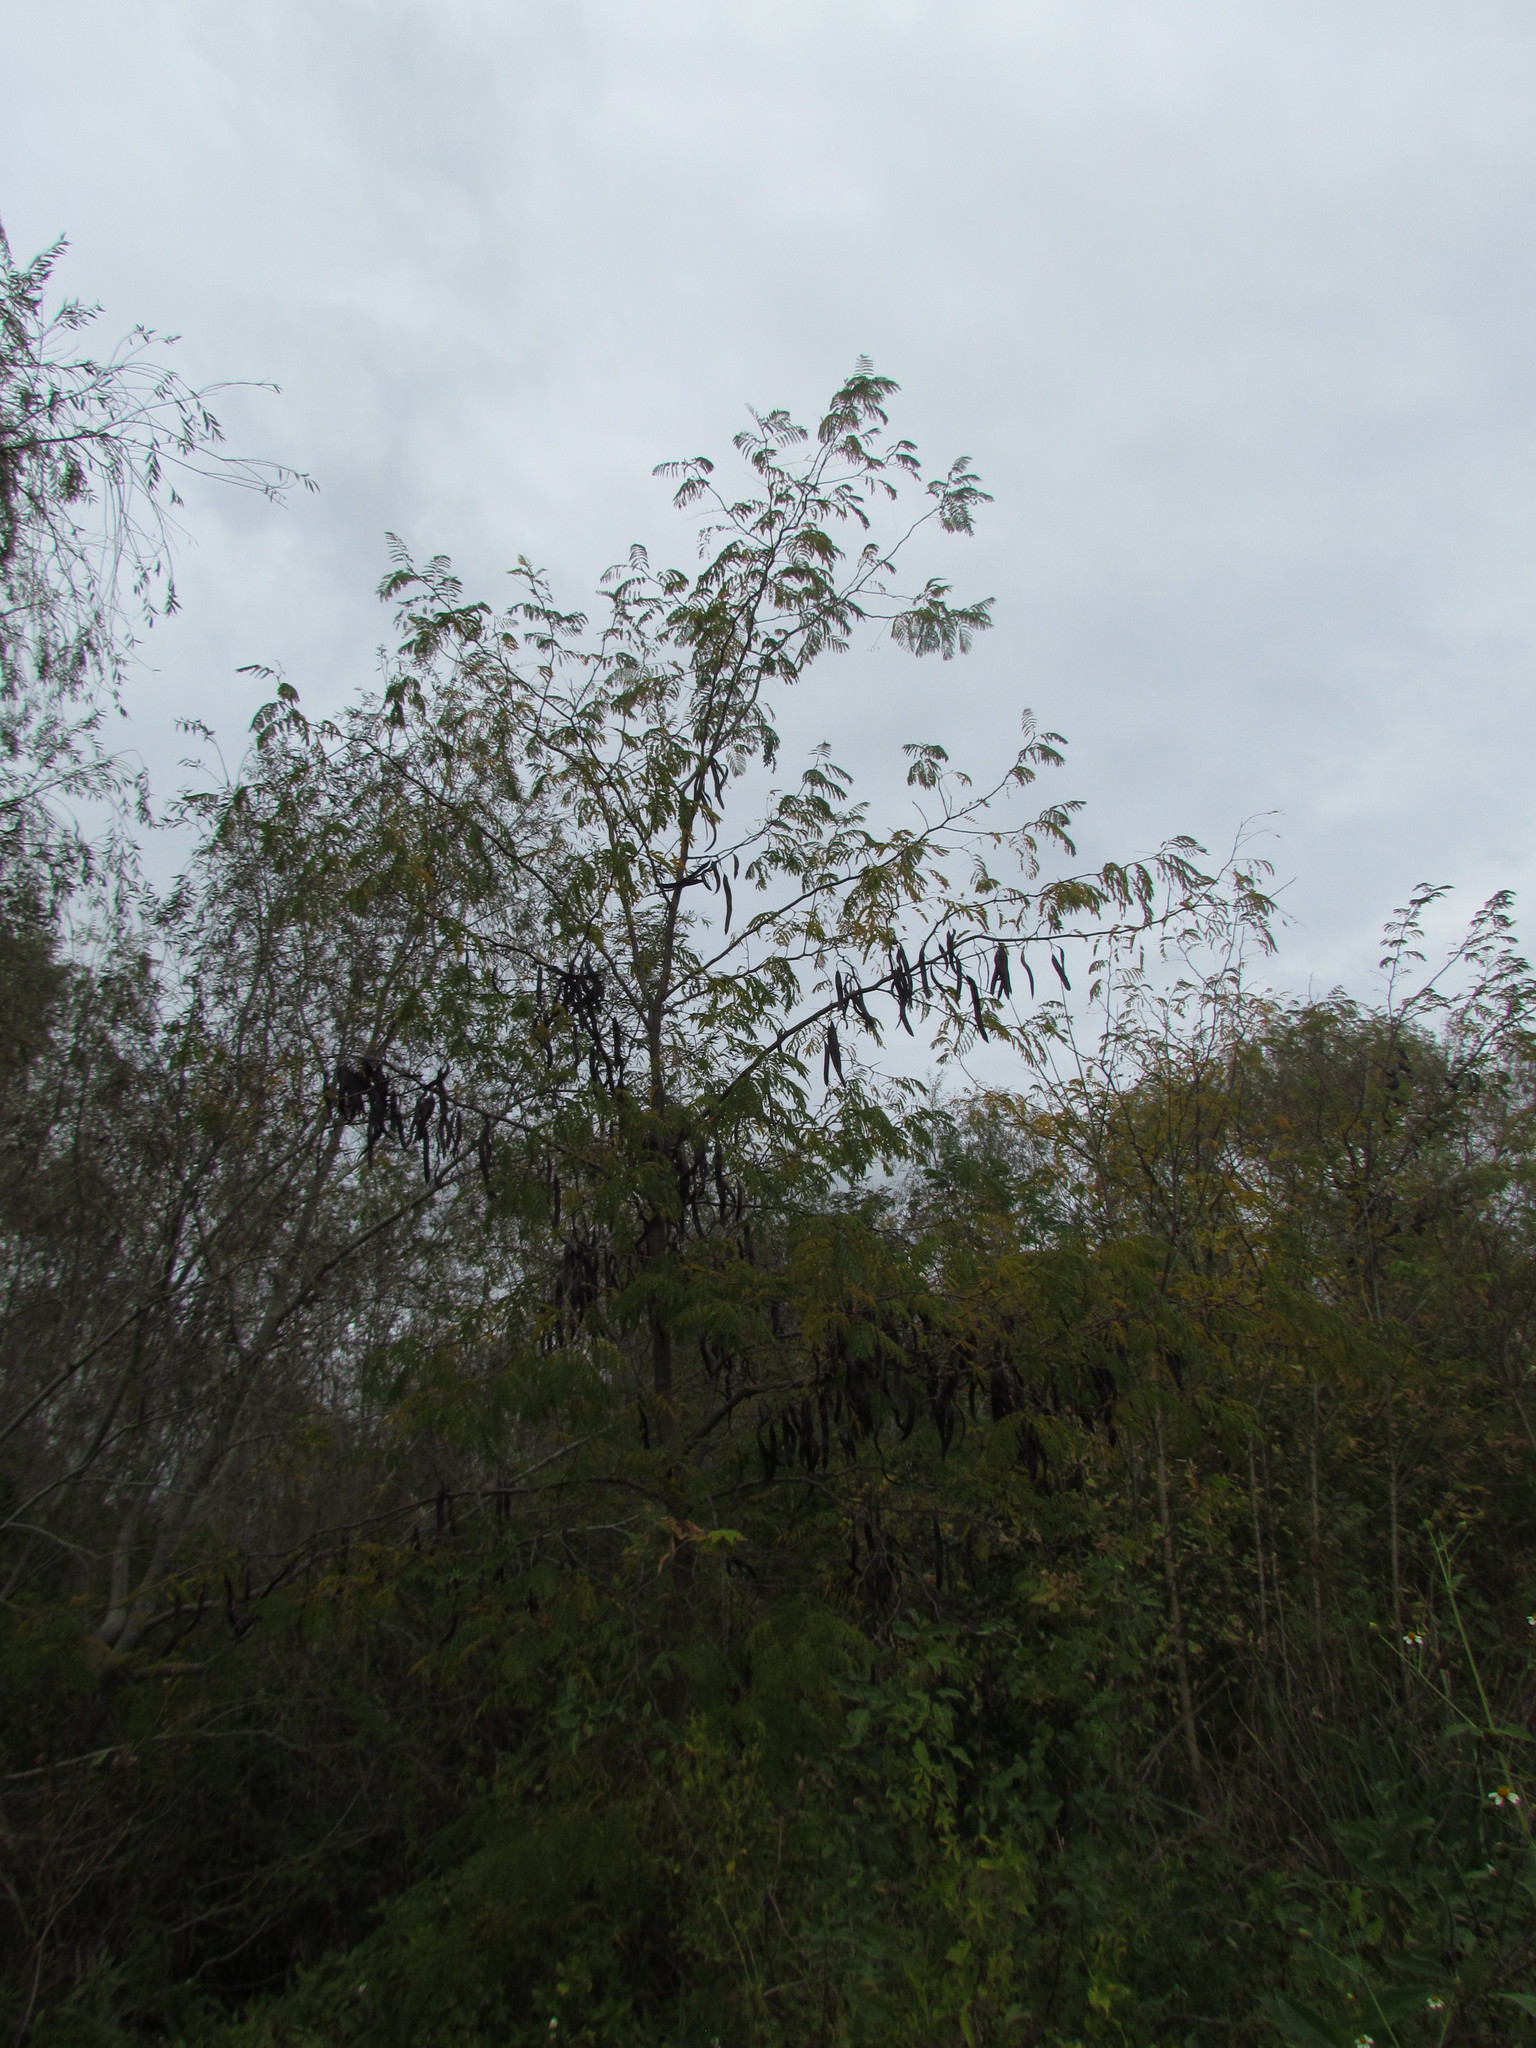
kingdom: Plantae
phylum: Tracheophyta
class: Magnoliopsida
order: Fabales
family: Fabaceae
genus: Gleditsia
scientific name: Gleditsia triacanthos
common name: Common honeylocust
